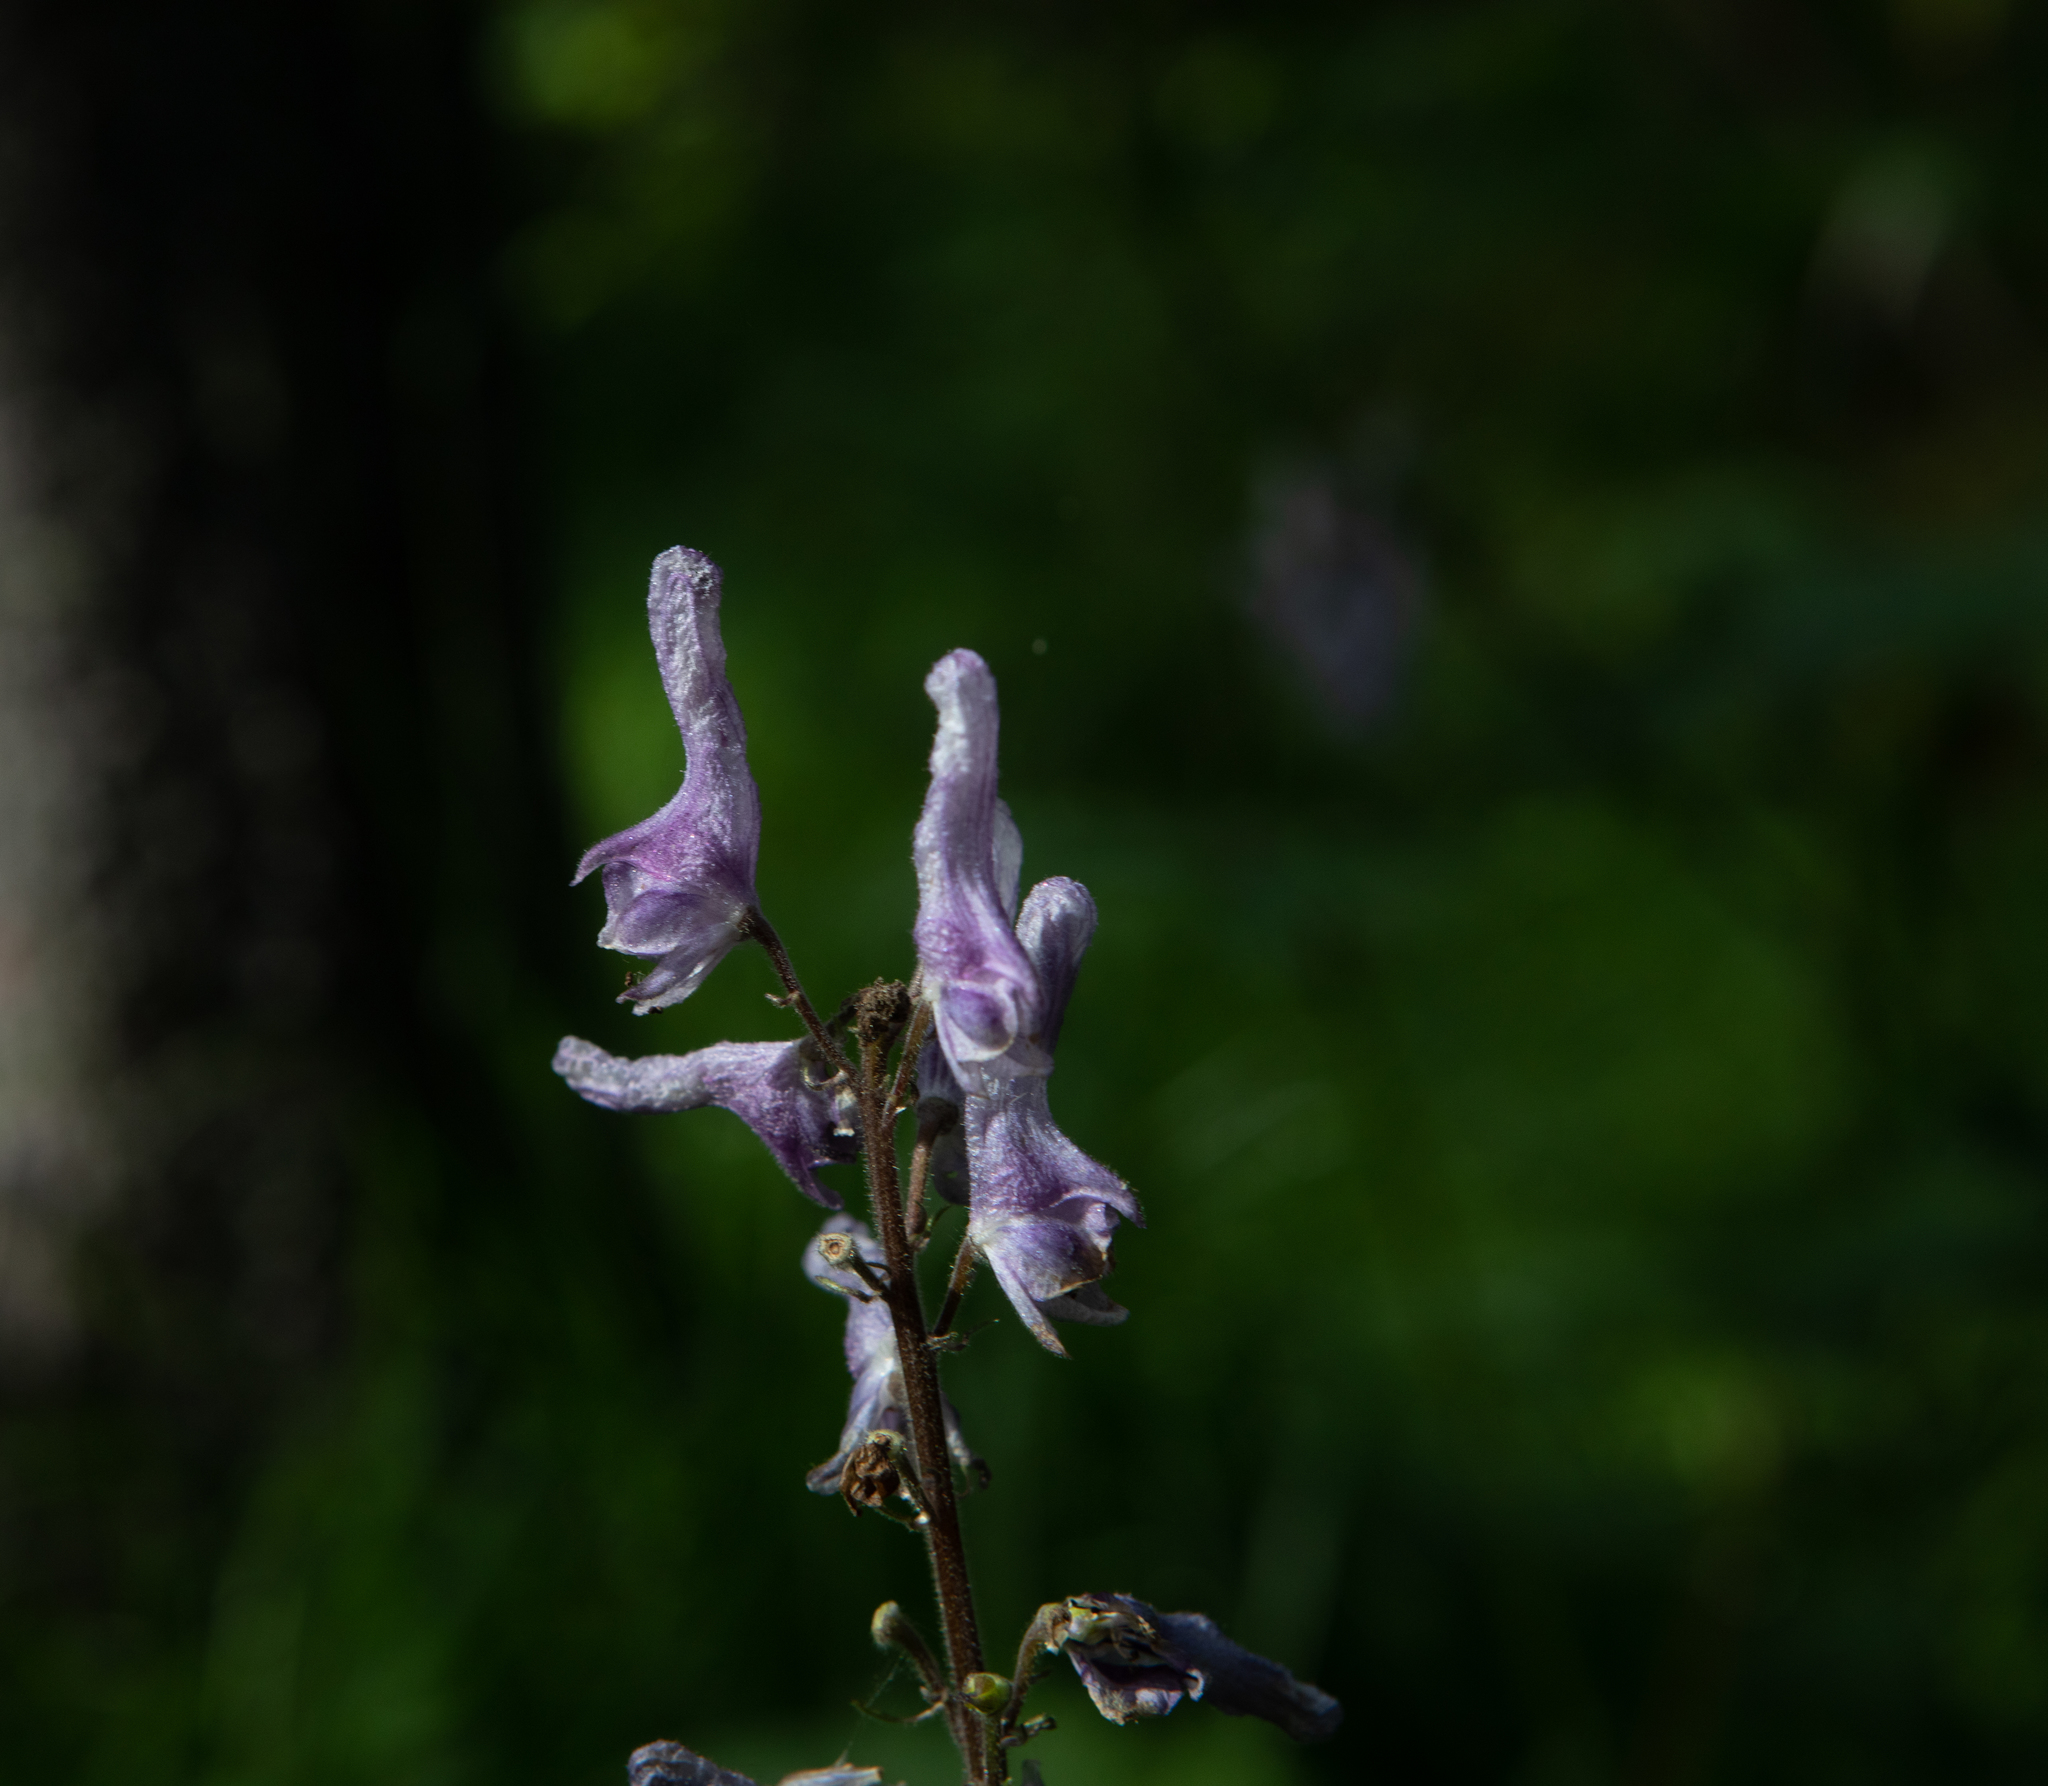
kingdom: Plantae
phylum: Tracheophyta
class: Magnoliopsida
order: Ranunculales
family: Ranunculaceae
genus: Aconitum
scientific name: Aconitum septentrionale
